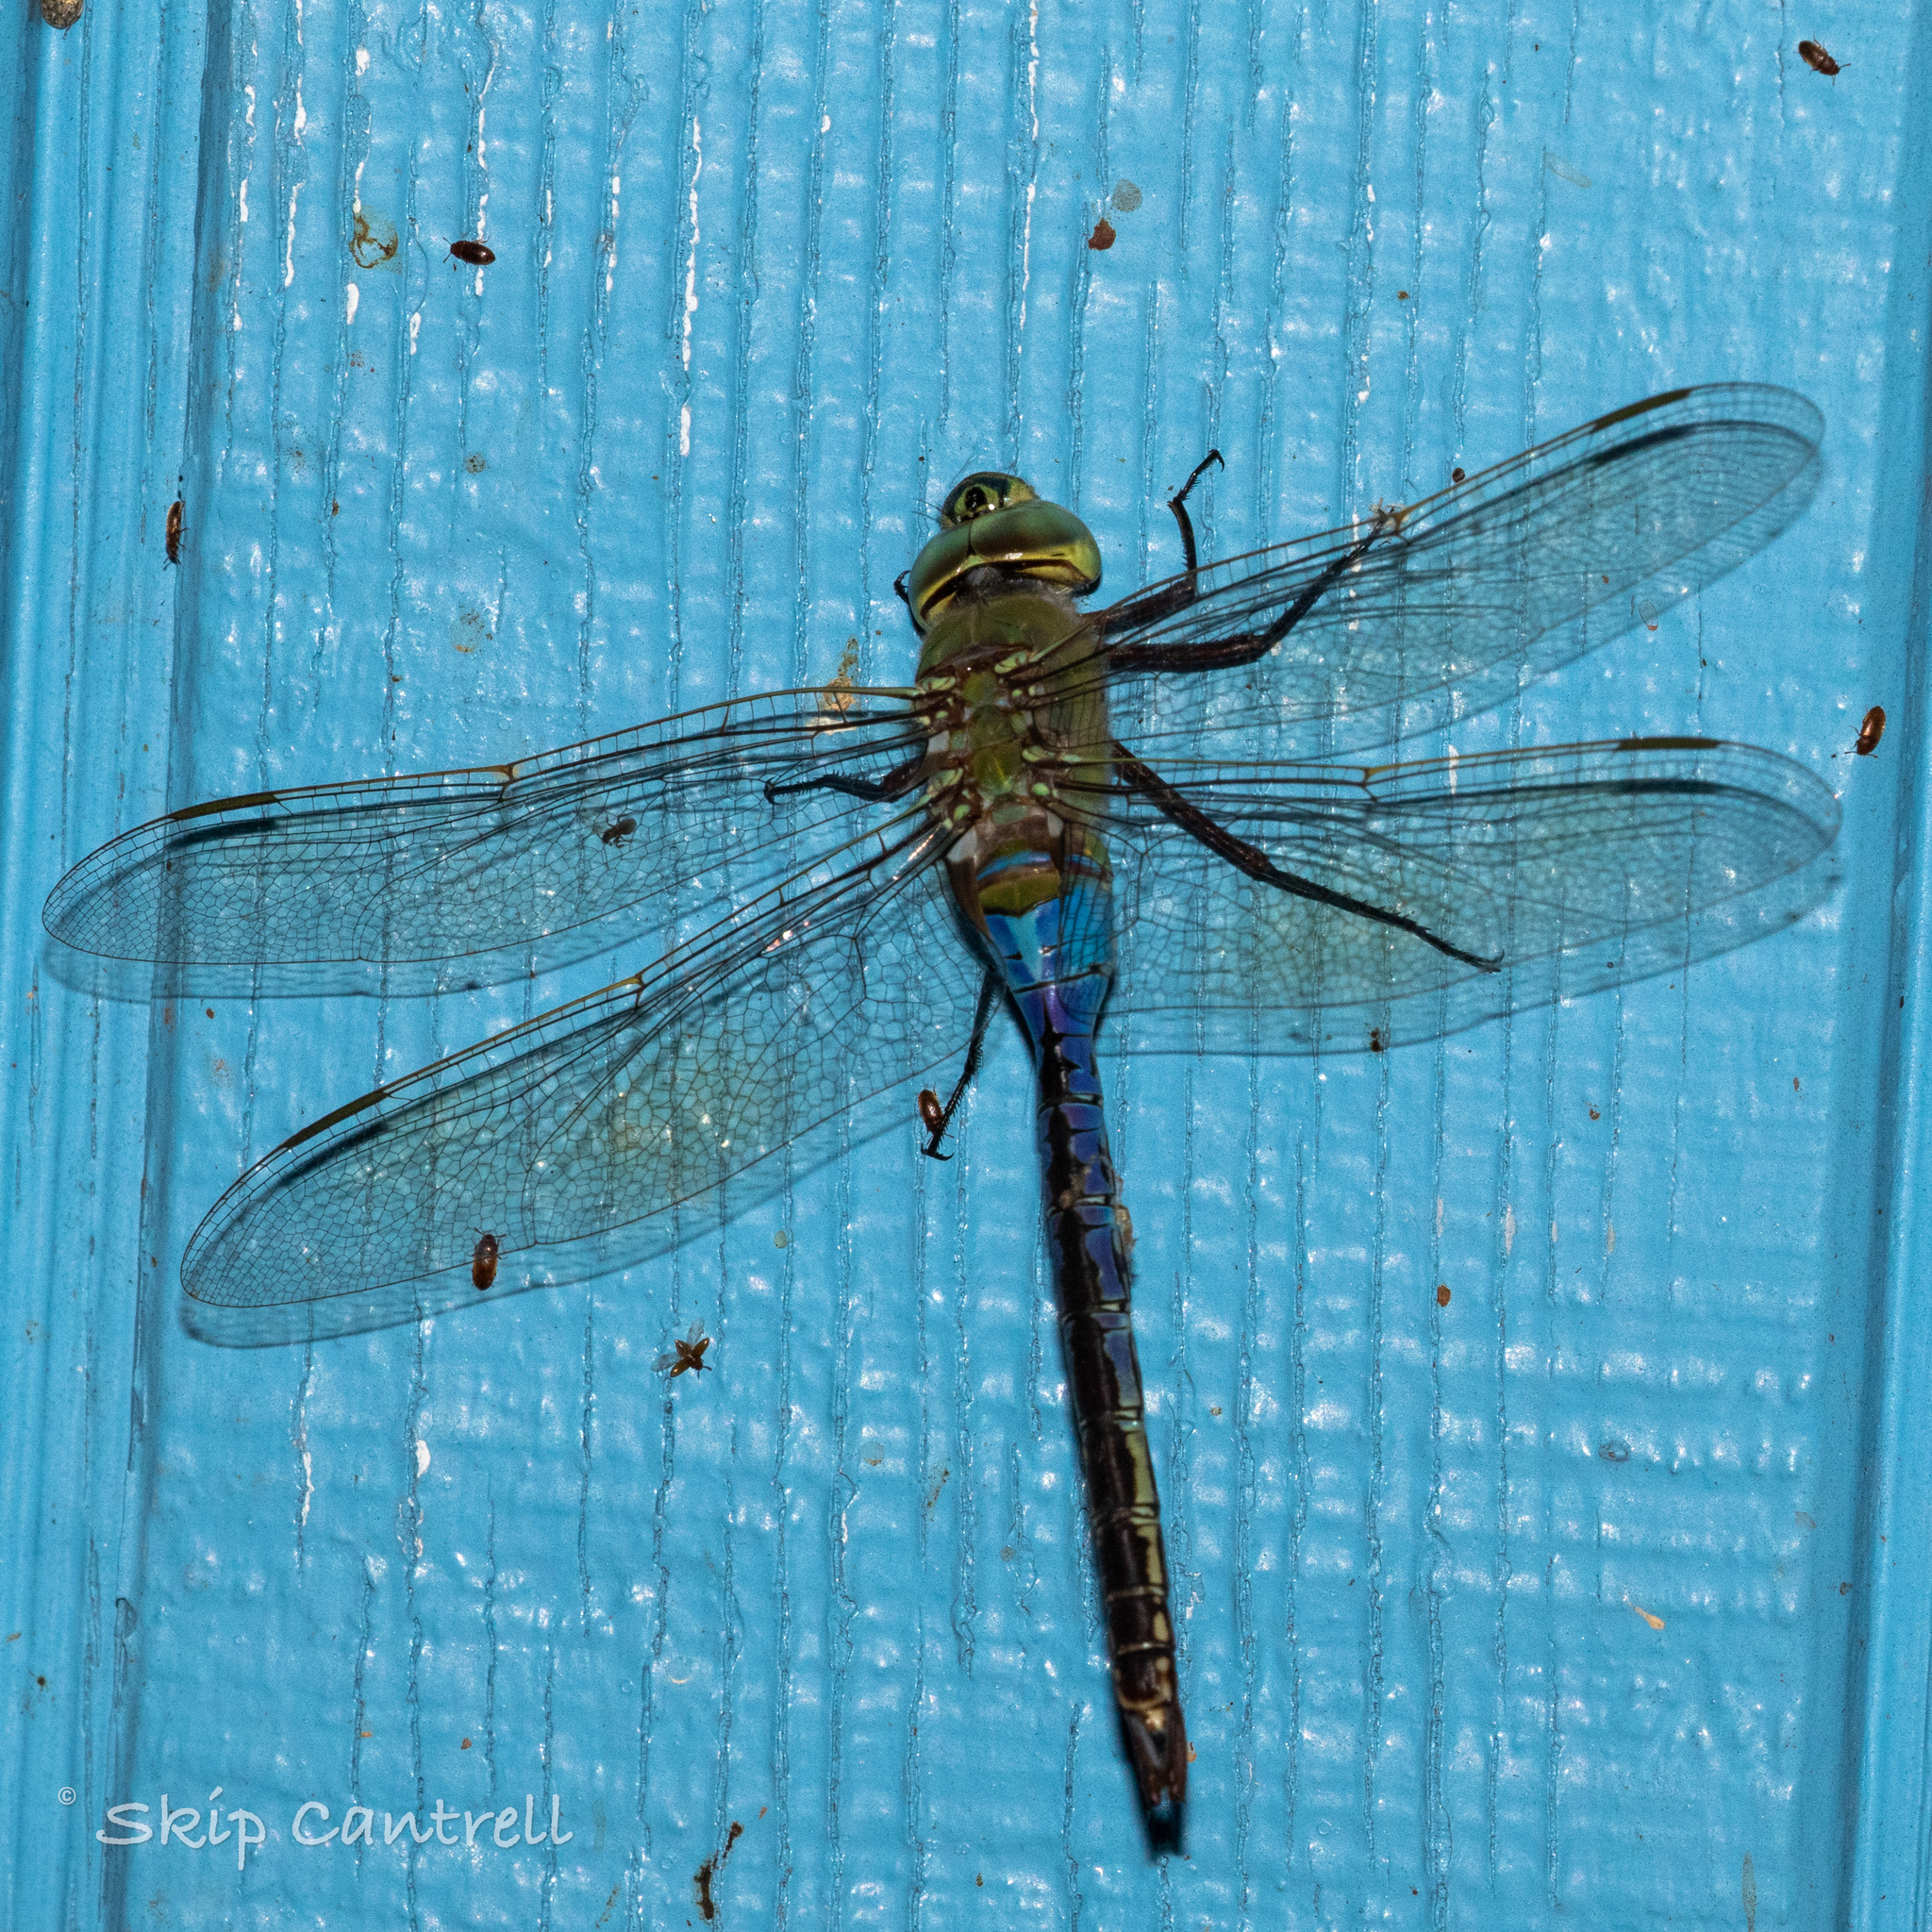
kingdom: Animalia
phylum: Arthropoda
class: Insecta
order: Odonata
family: Aeshnidae
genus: Anax
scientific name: Anax junius
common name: Common green darner
